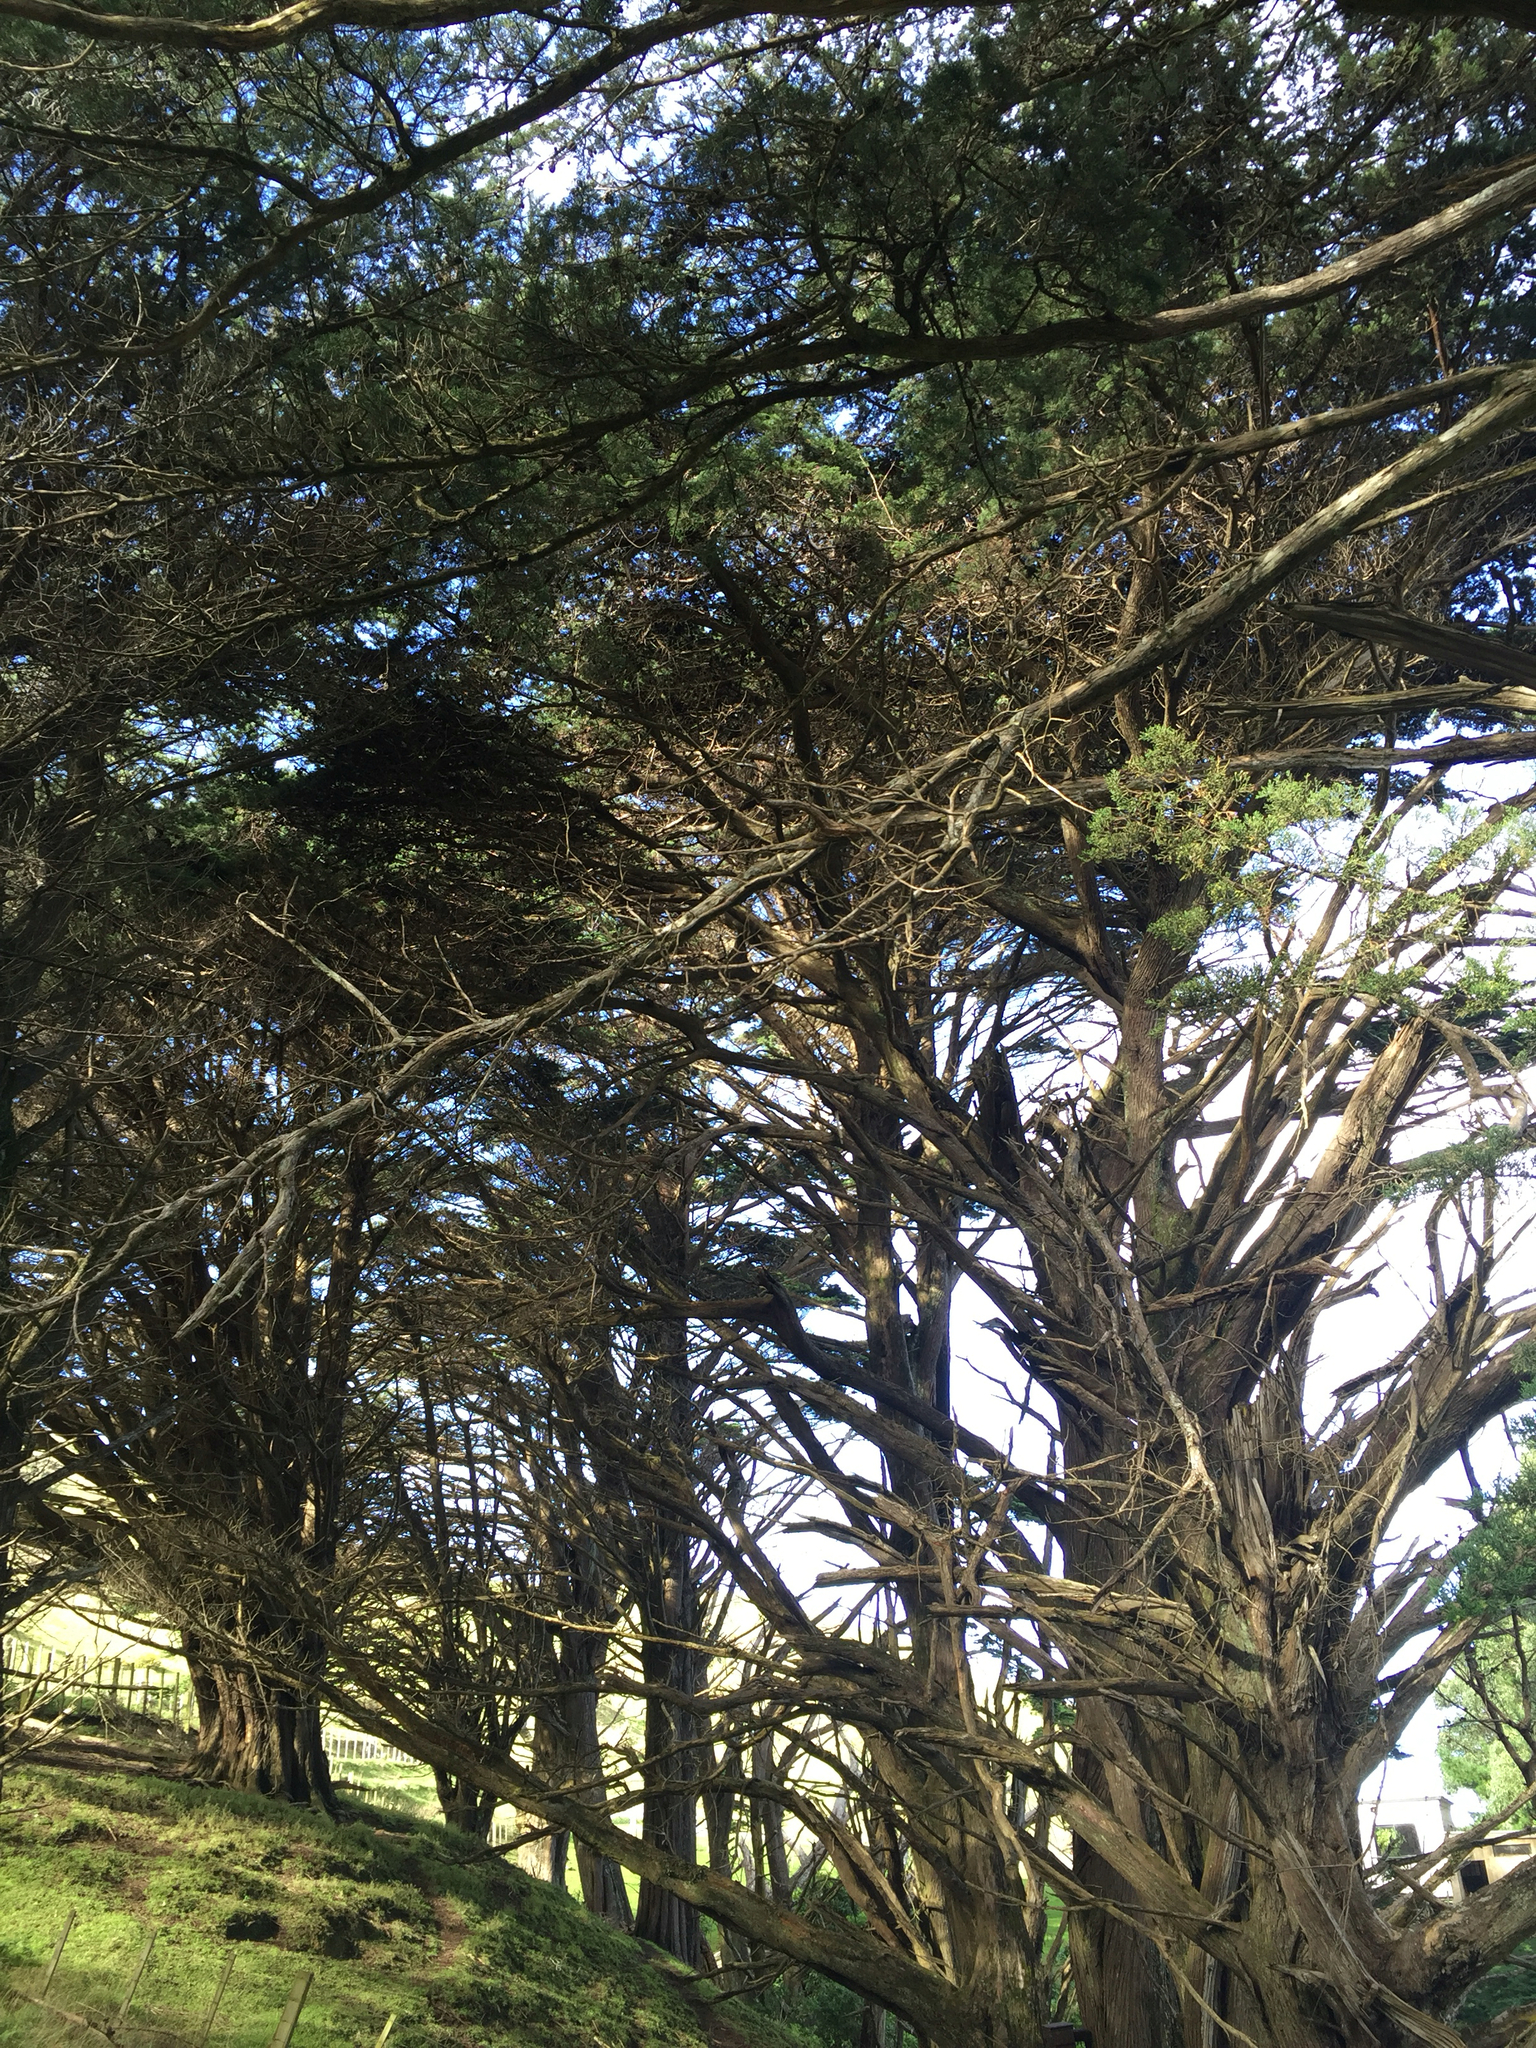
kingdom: Plantae
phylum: Tracheophyta
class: Pinopsida
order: Pinales
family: Cupressaceae
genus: Cupressus
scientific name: Cupressus macrocarpa
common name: Monterey cypress
